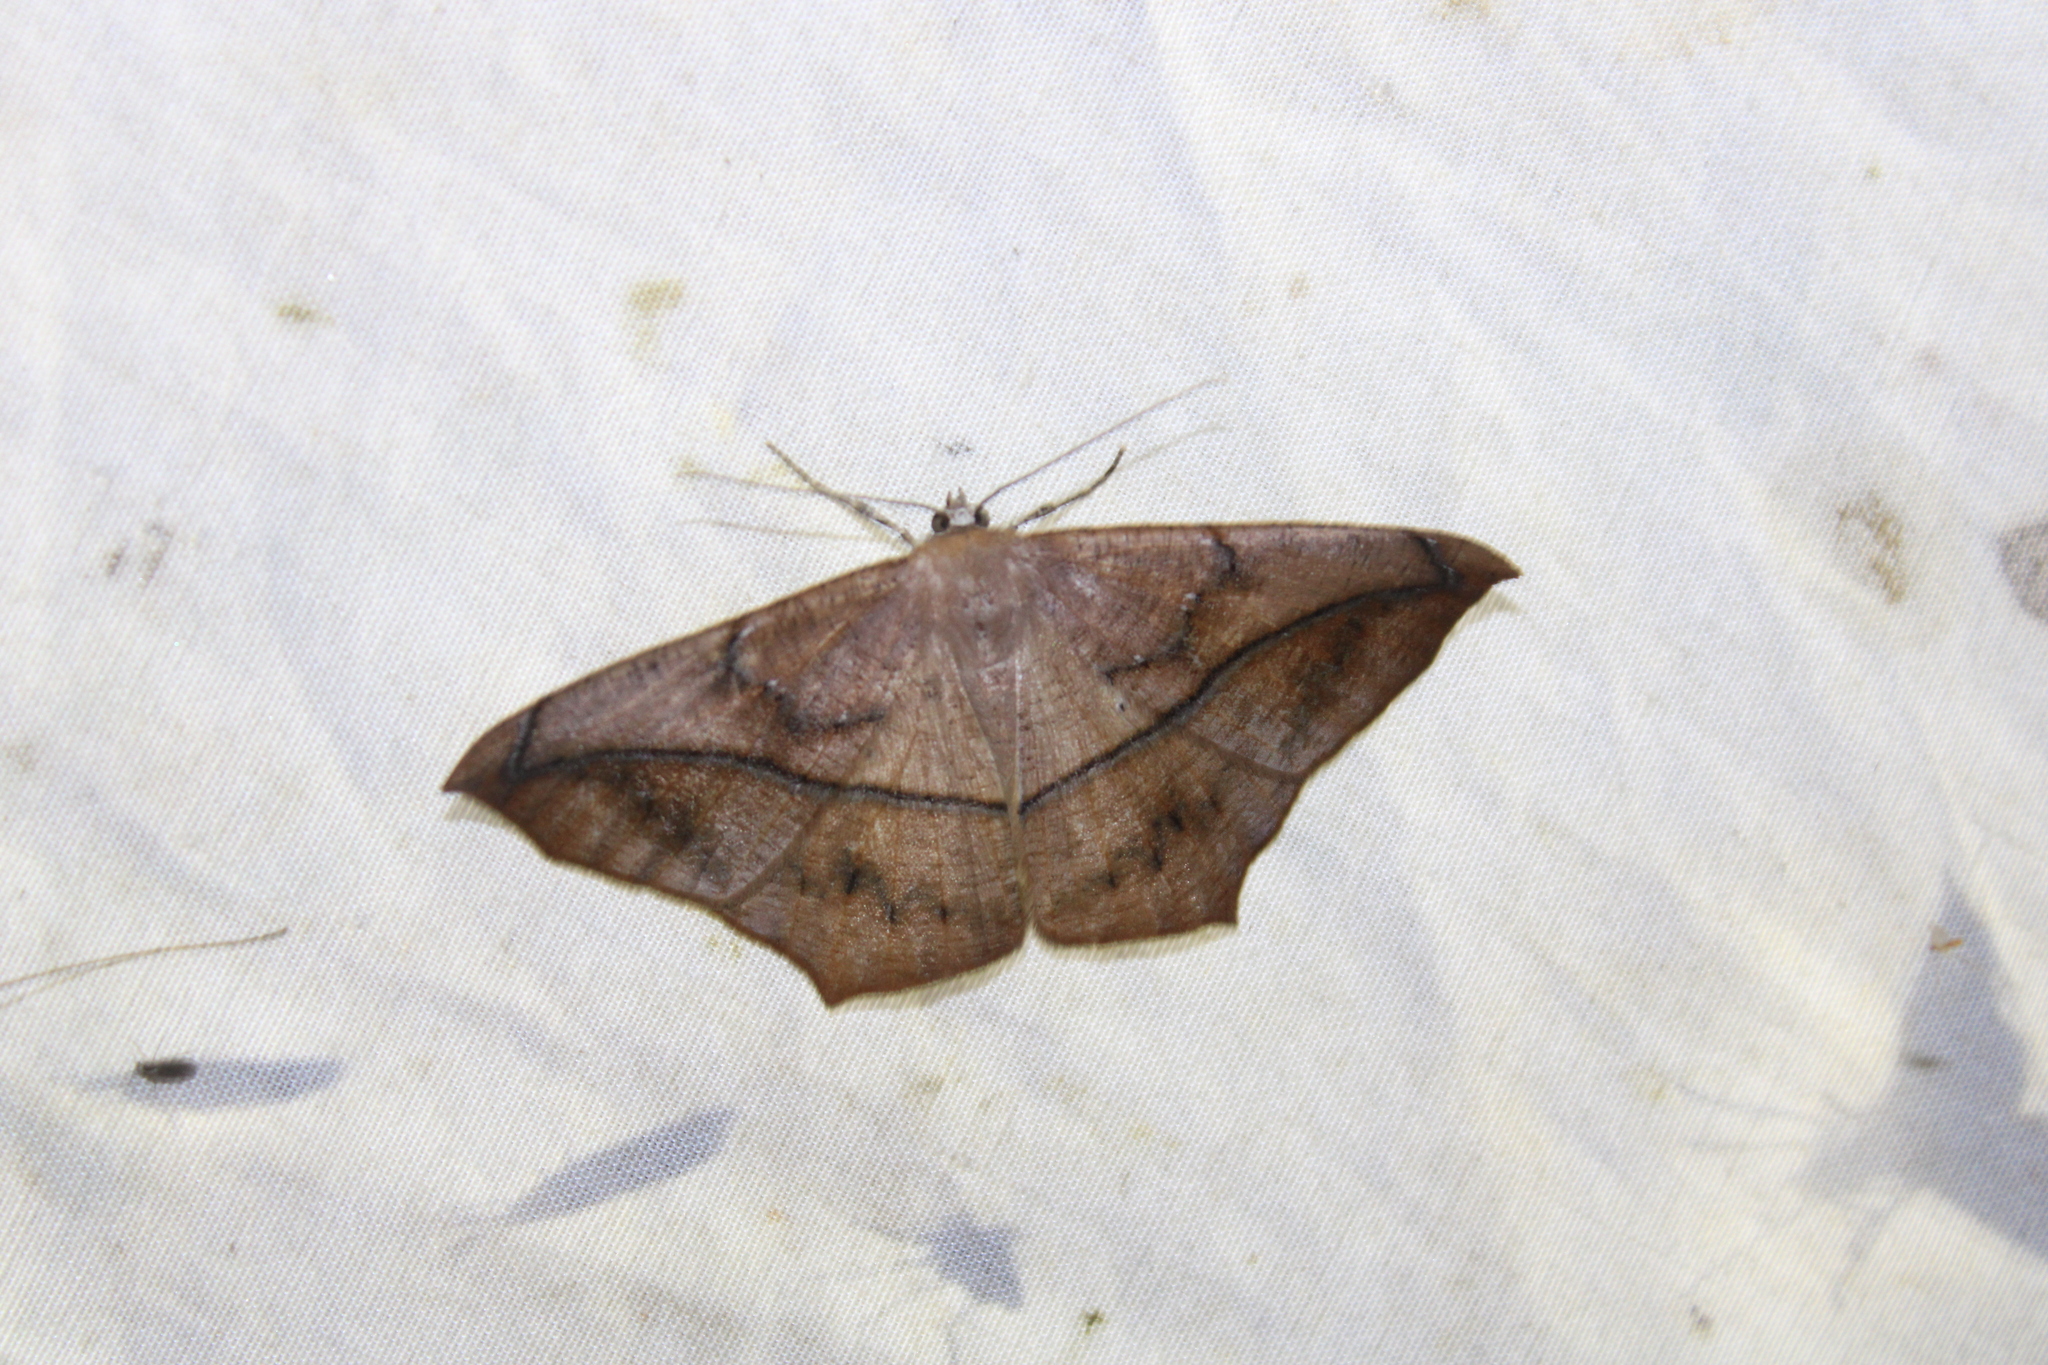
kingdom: Animalia
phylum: Arthropoda
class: Insecta
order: Lepidoptera
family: Geometridae
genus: Prochoerodes
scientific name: Prochoerodes lineola
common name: Large maple spanworm
